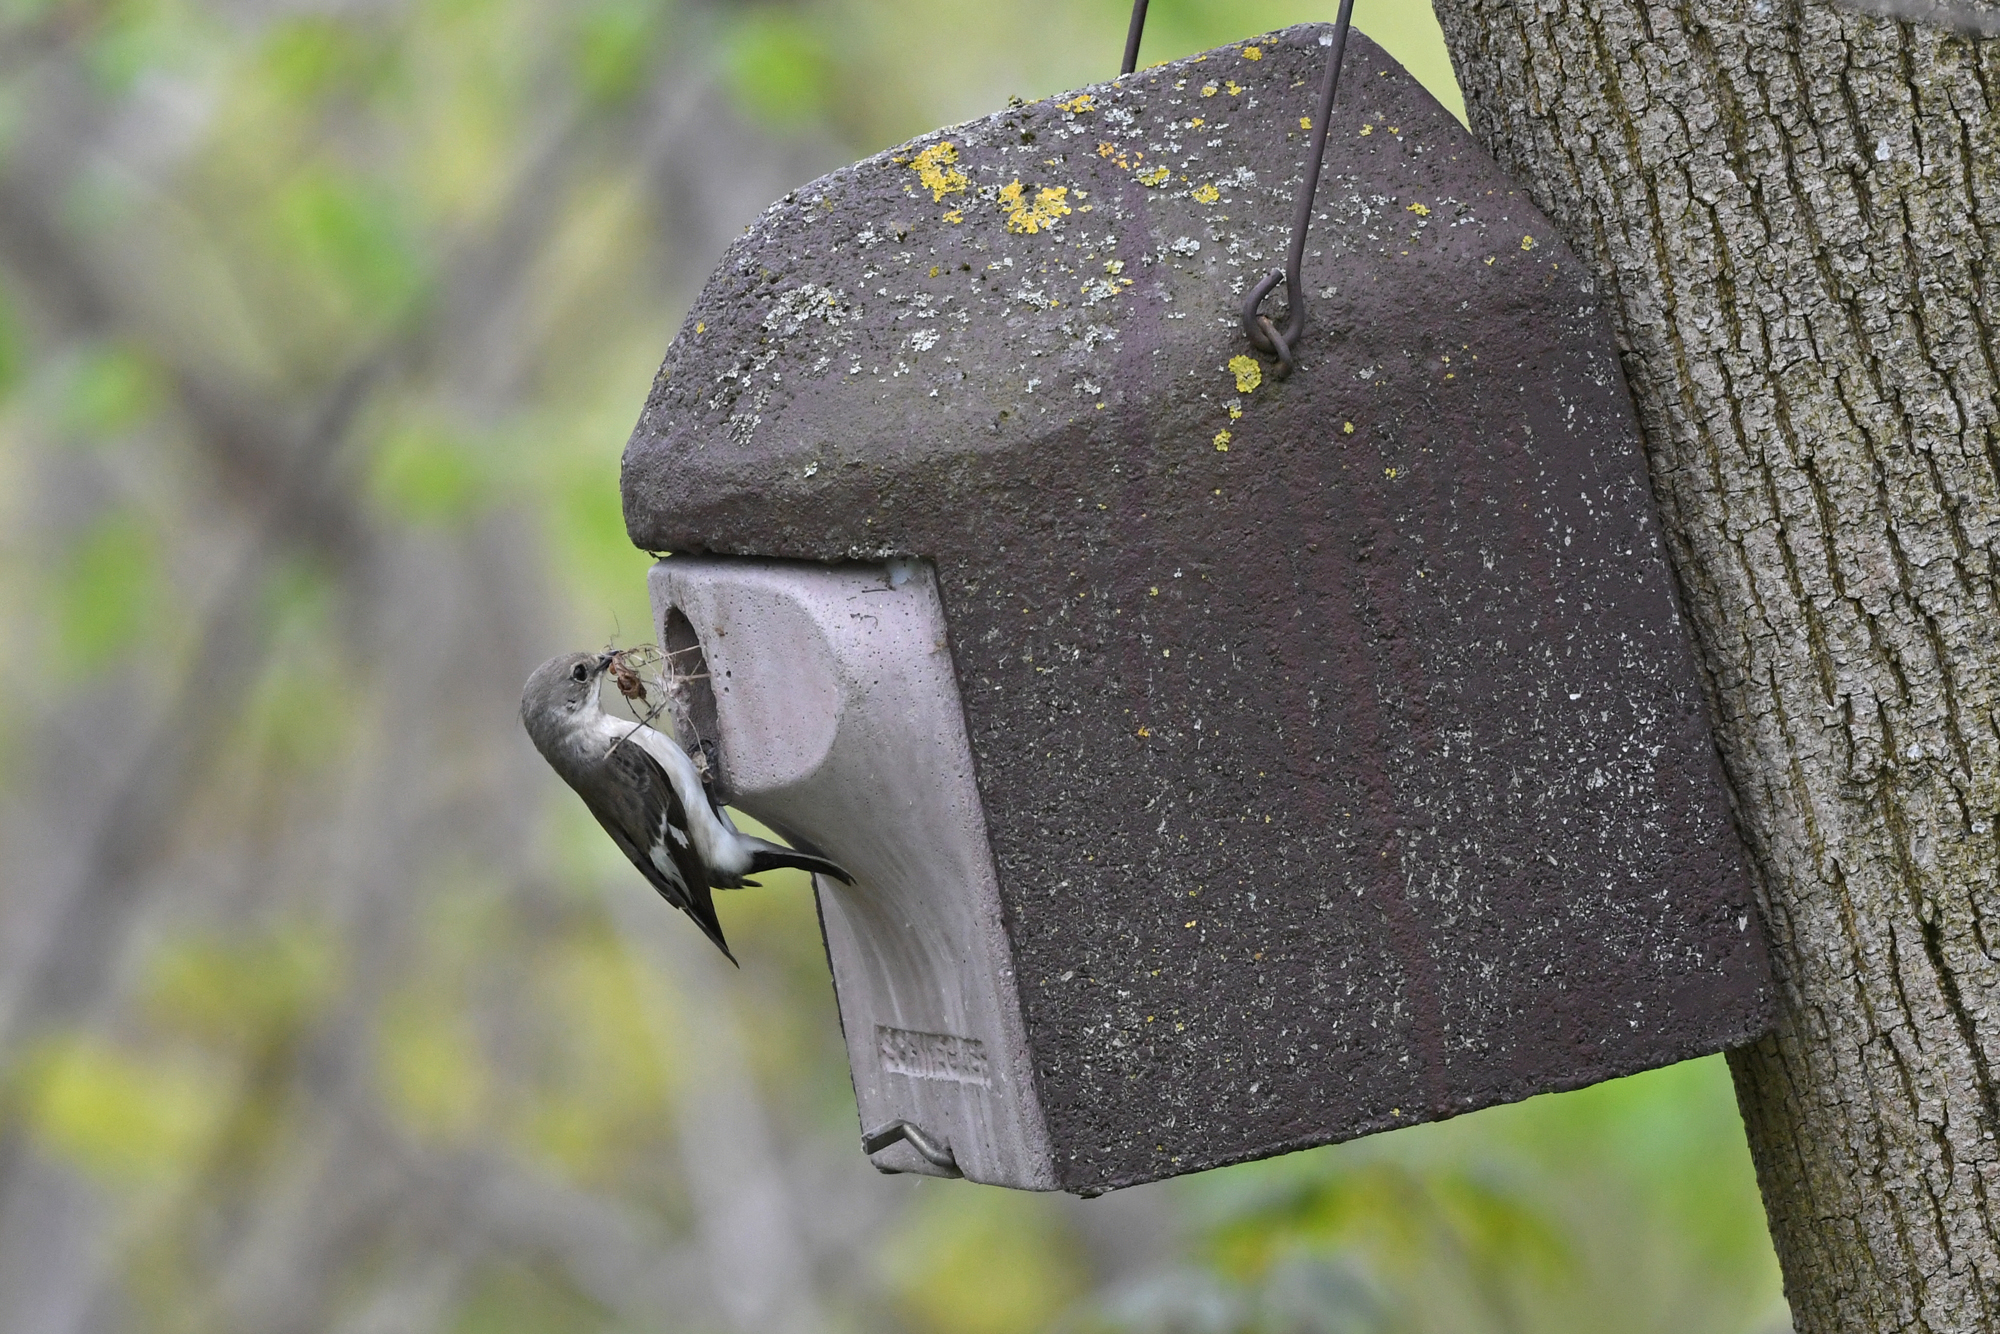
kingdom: Animalia
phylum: Chordata
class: Aves
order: Passeriformes
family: Muscicapidae
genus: Ficedula
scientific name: Ficedula albicollis
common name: Collared flycatcher
